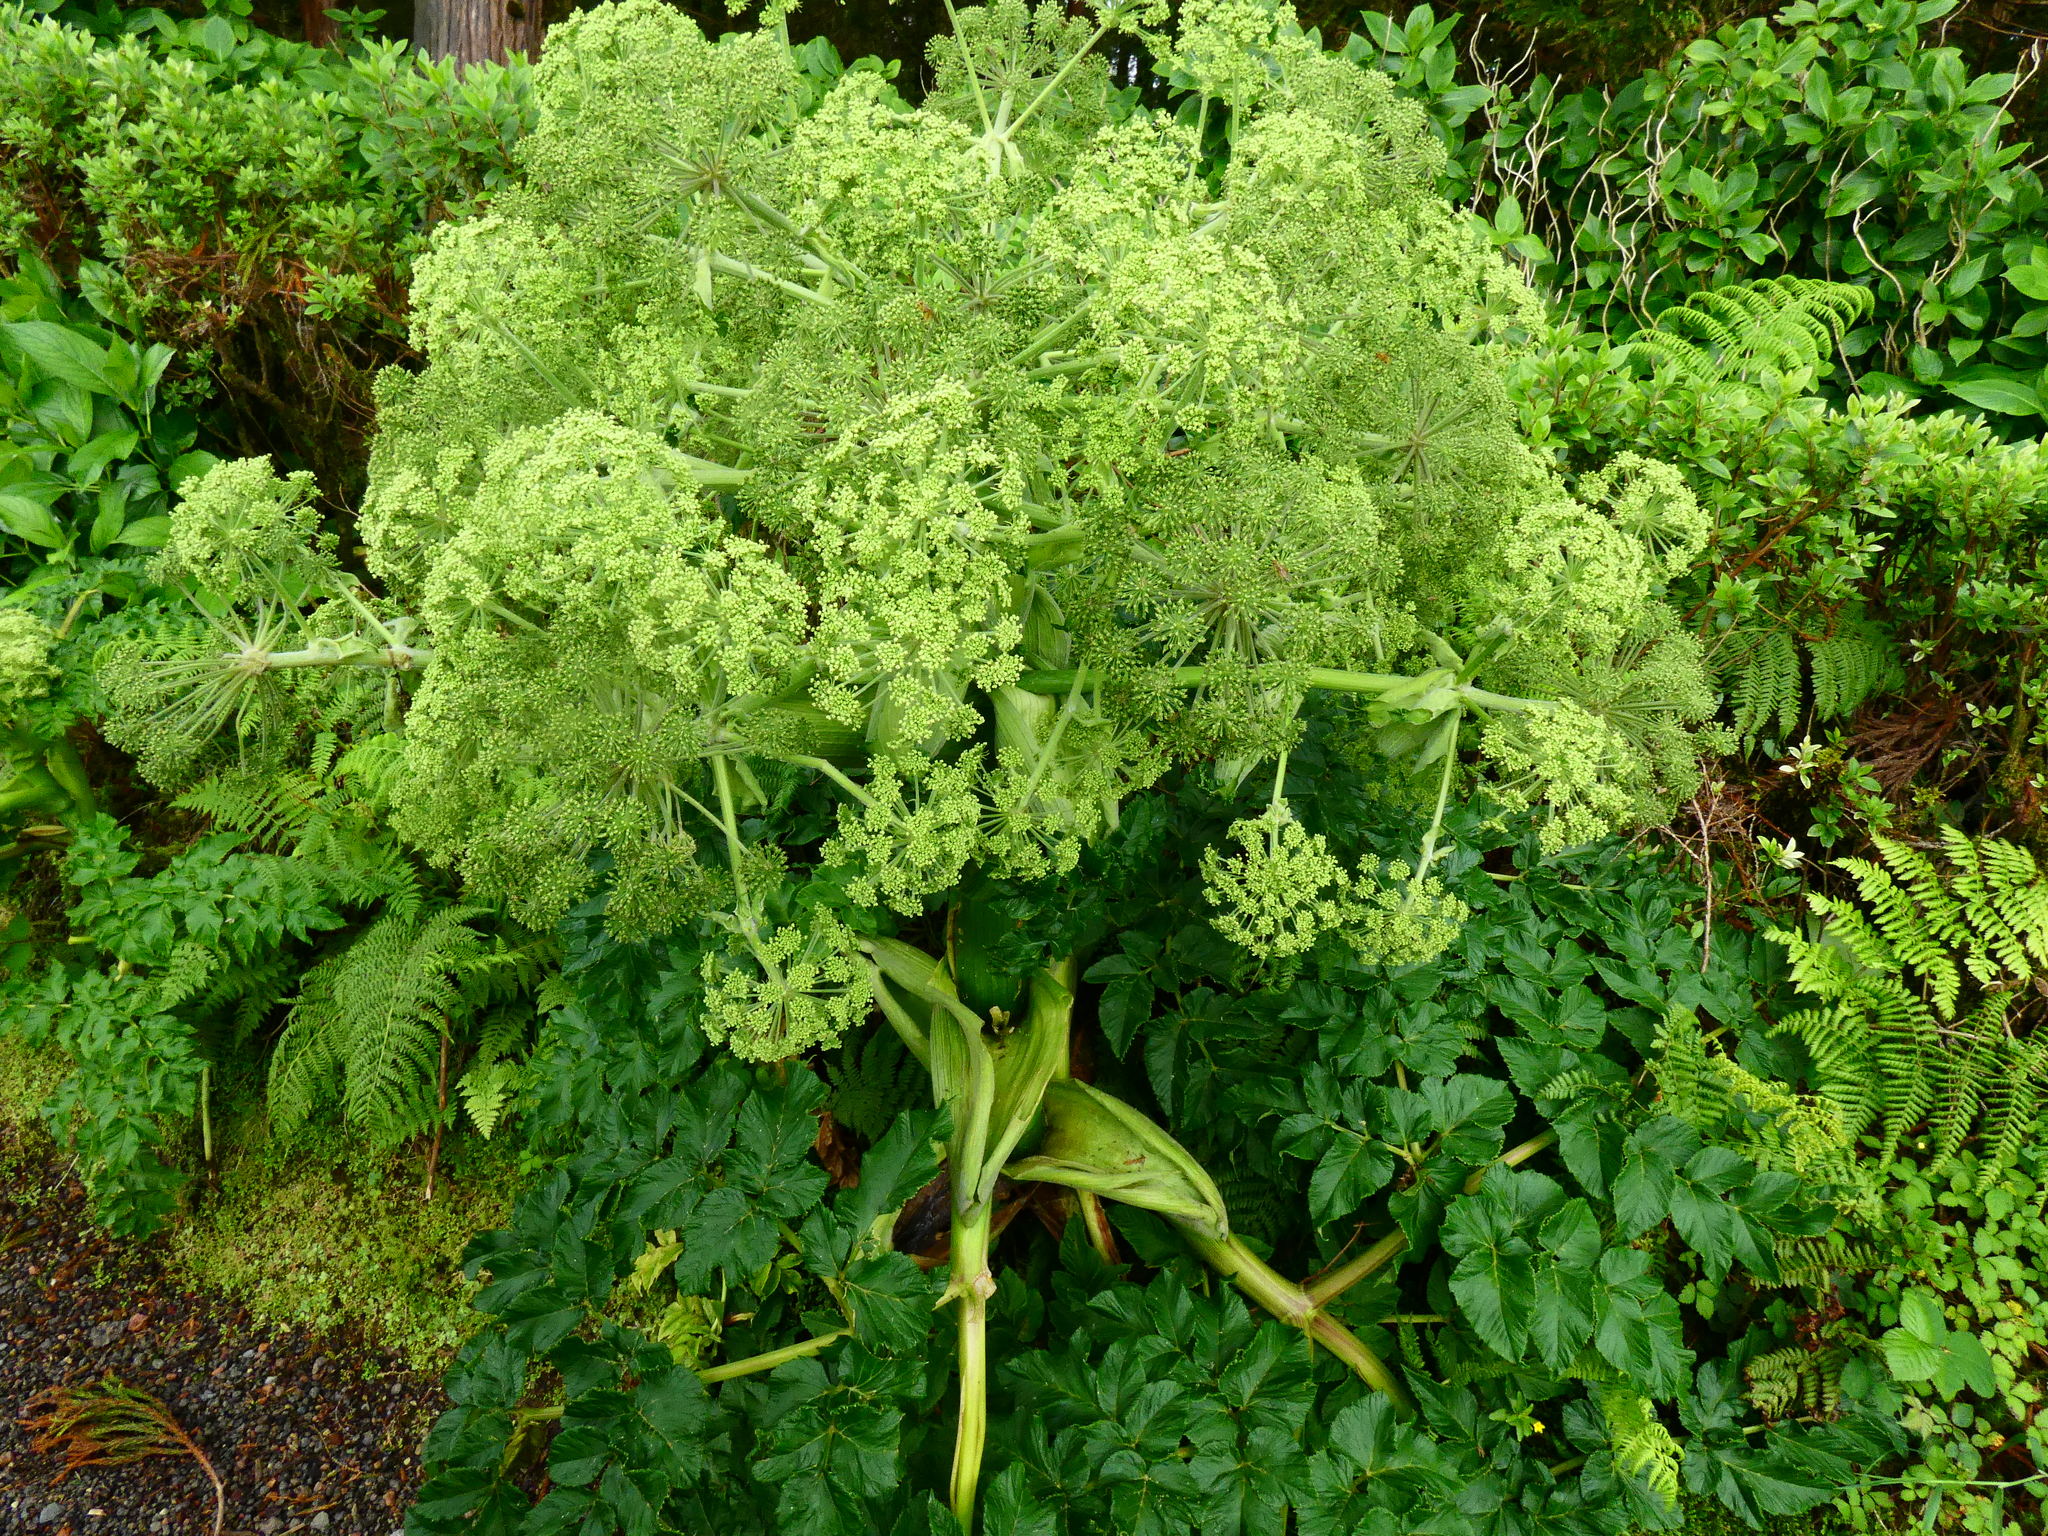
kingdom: Plantae
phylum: Tracheophyta
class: Magnoliopsida
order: Apiales
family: Apiaceae
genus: Angelica
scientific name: Angelica lignescens
